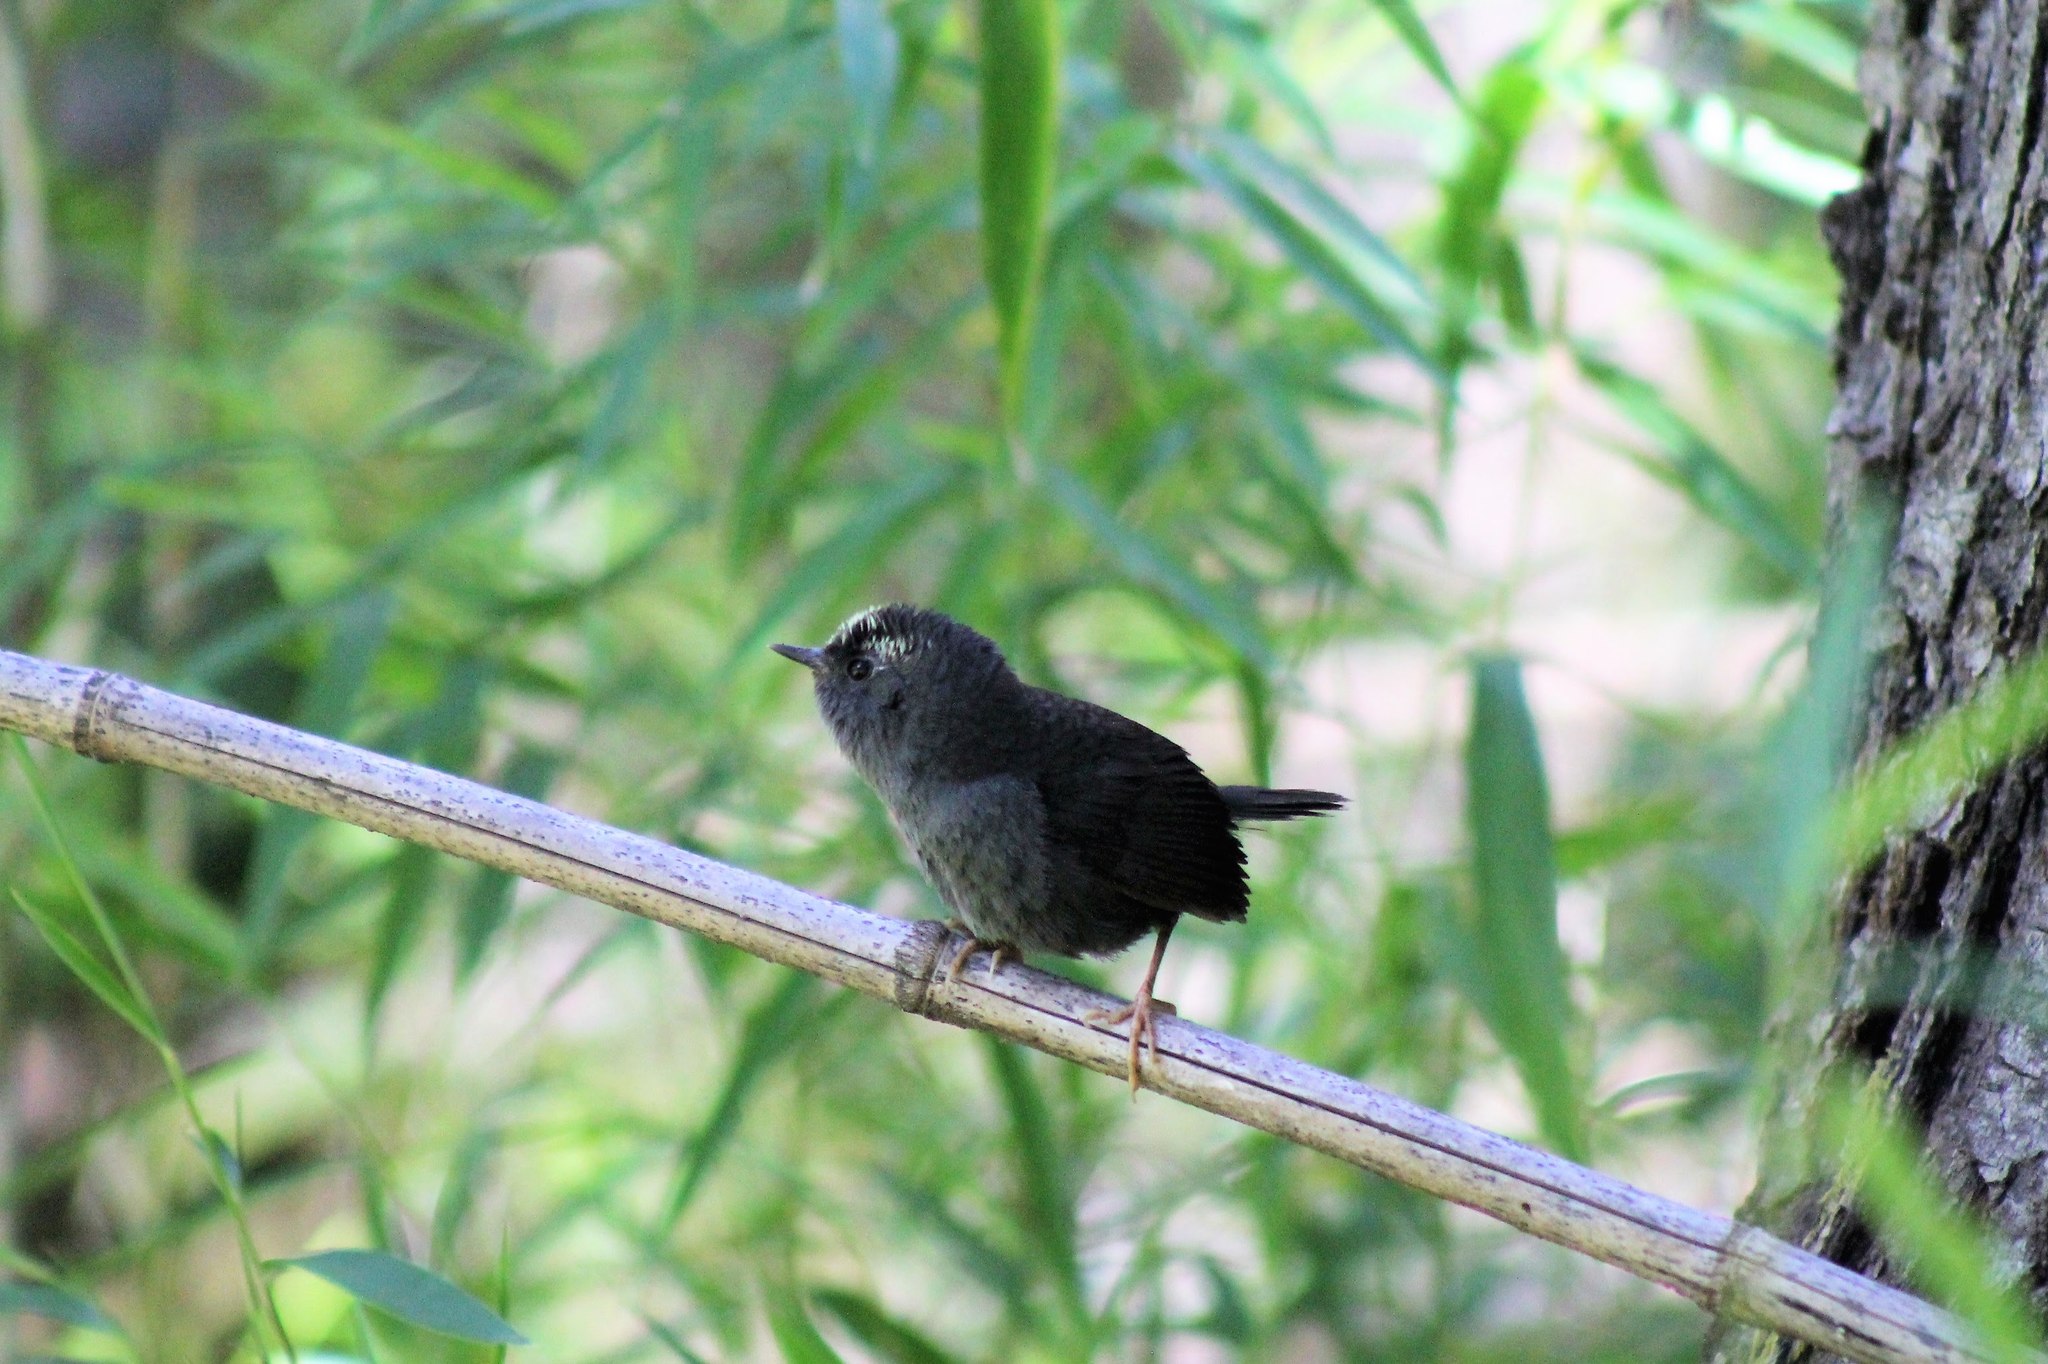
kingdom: Animalia
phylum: Chordata
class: Aves
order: Passeriformes
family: Rhinocryptidae
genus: Scytalopus
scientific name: Scytalopus magellanicus
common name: Magellanic tapaculo
